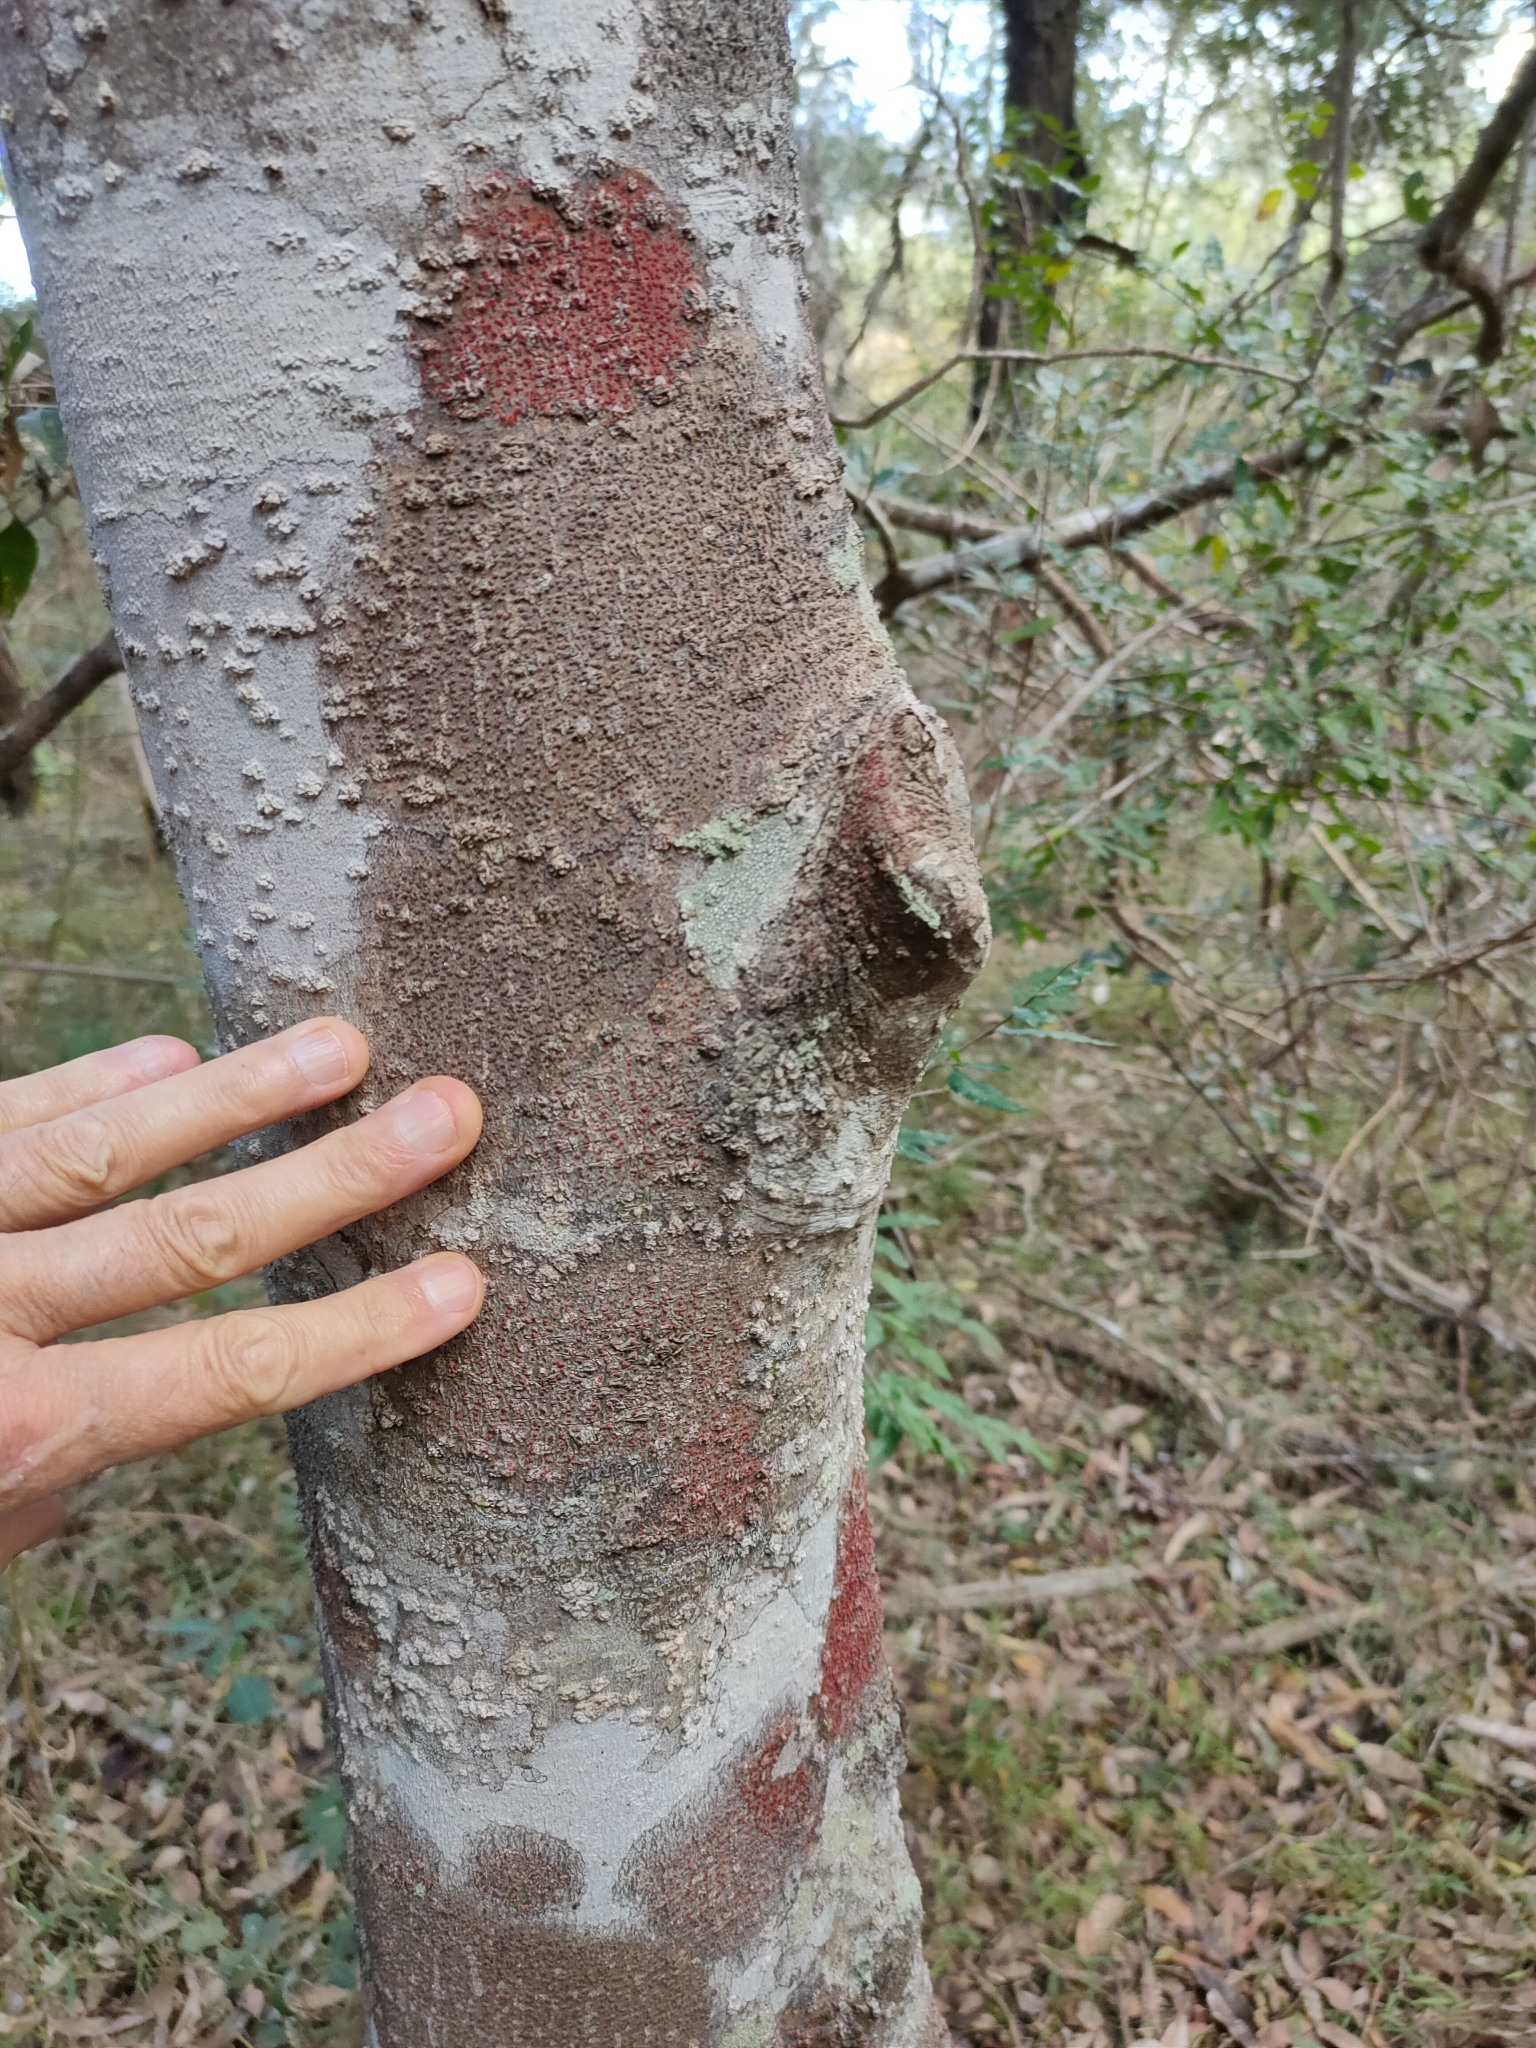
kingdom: Plantae
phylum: Tracheophyta
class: Magnoliopsida
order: Oxalidales
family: Elaeocarpaceae
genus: Elaeocarpus
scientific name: Elaeocarpus obovatus
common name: Freckled oliveberry
